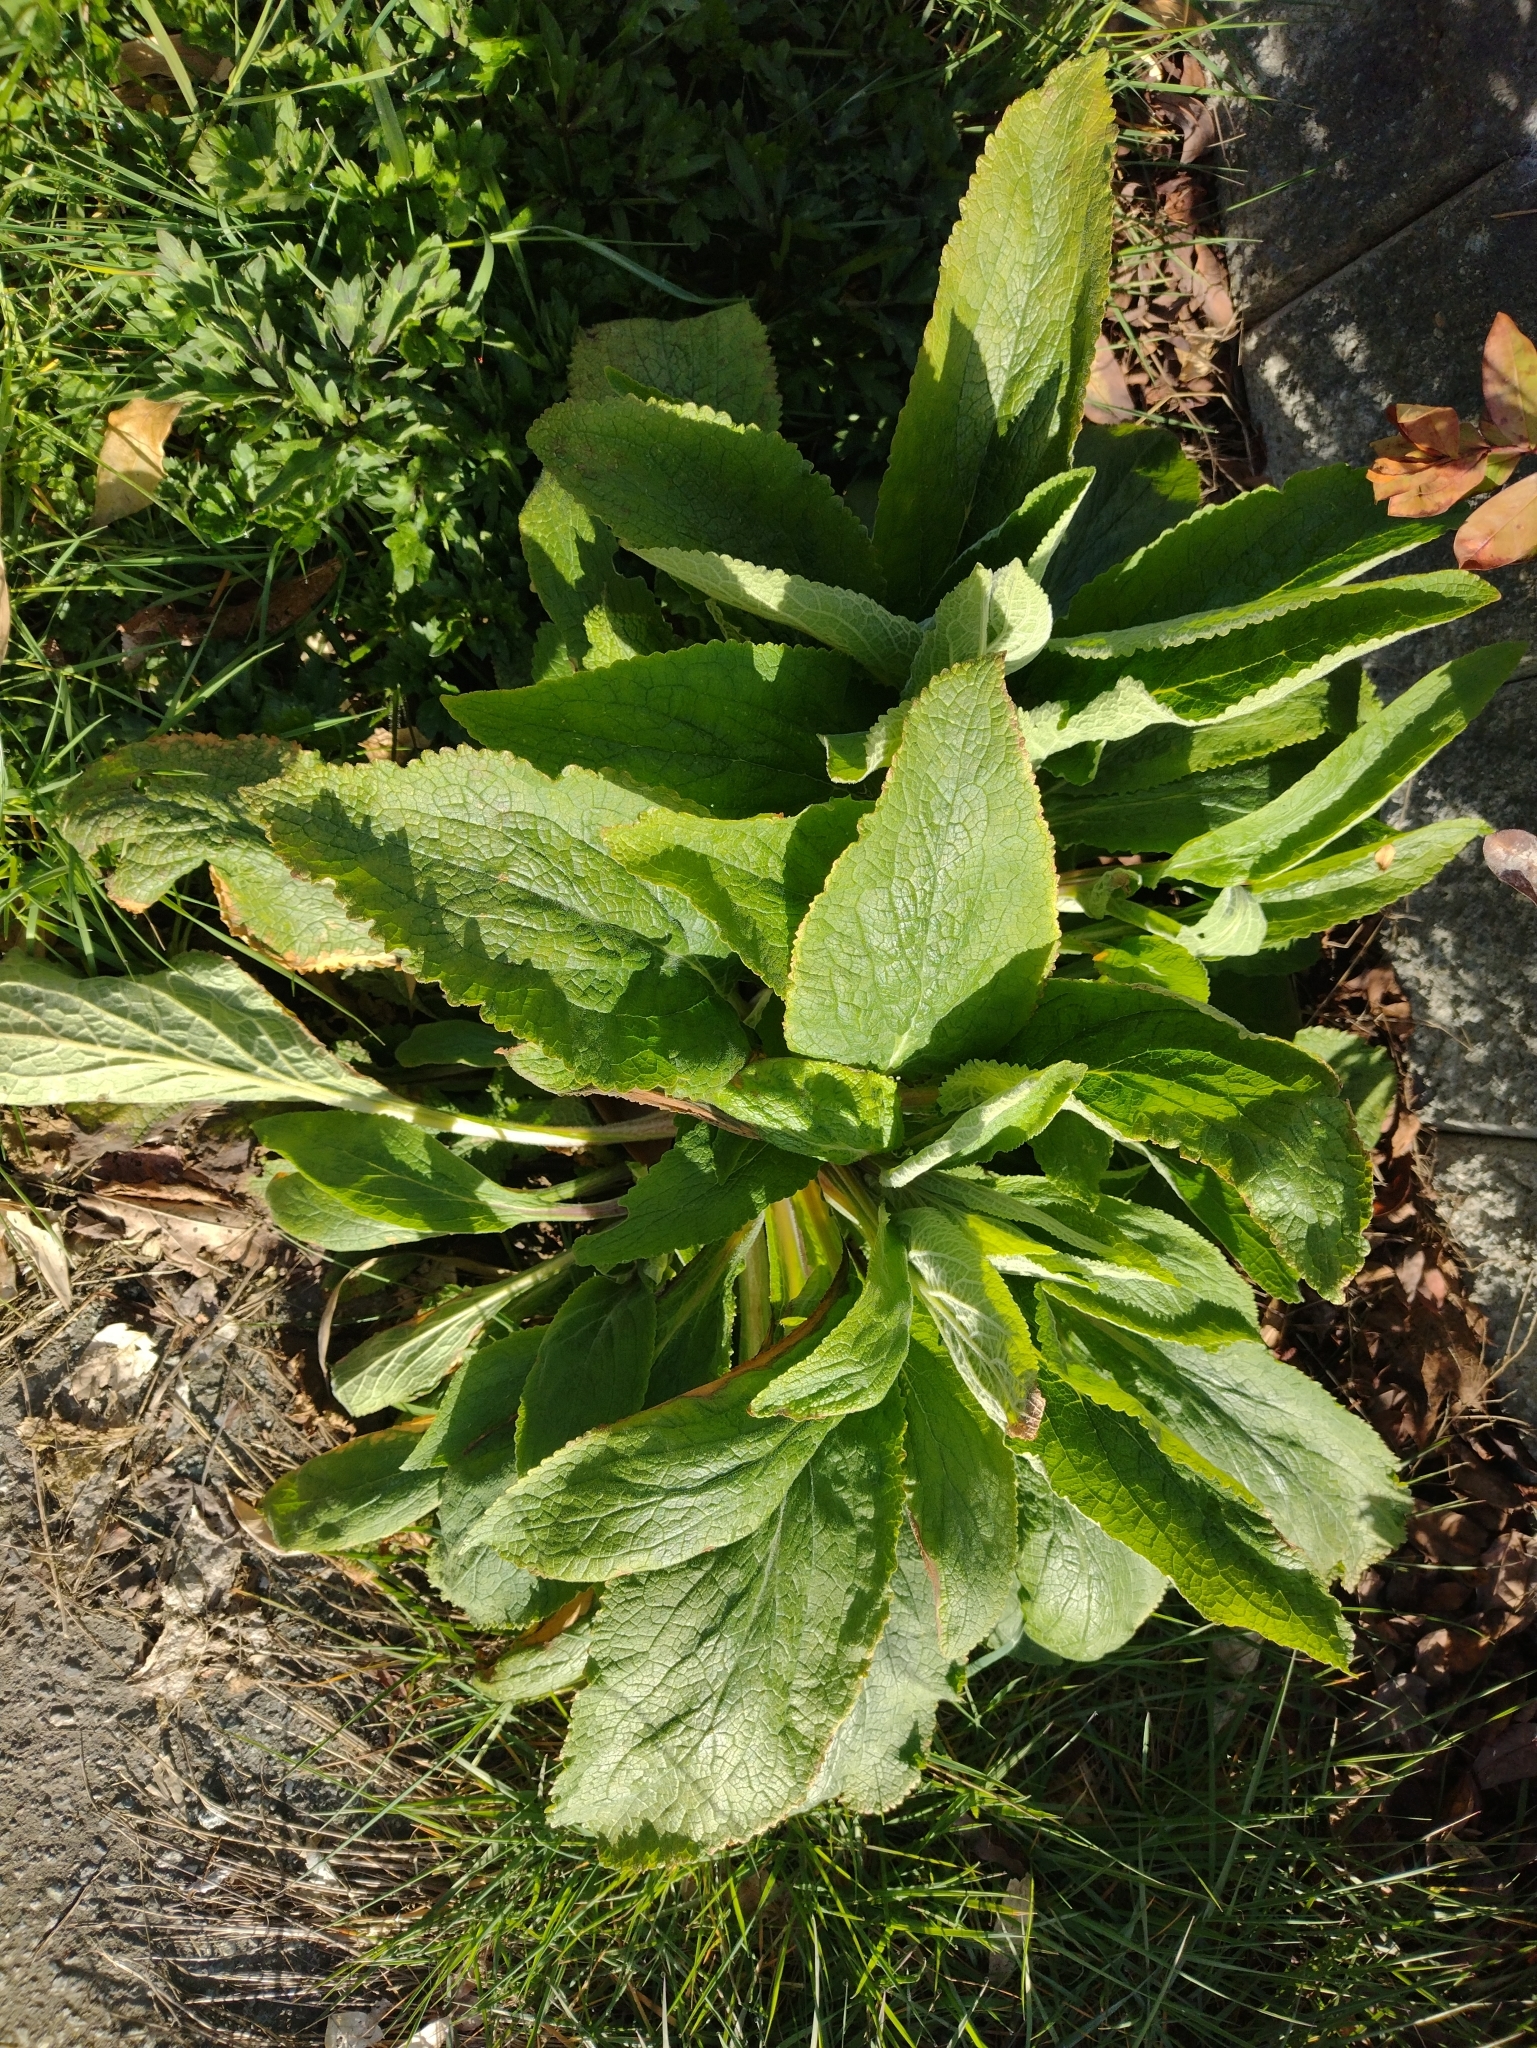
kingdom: Plantae
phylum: Tracheophyta
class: Magnoliopsida
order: Lamiales
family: Plantaginaceae
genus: Digitalis
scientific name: Digitalis purpurea
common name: Foxglove
